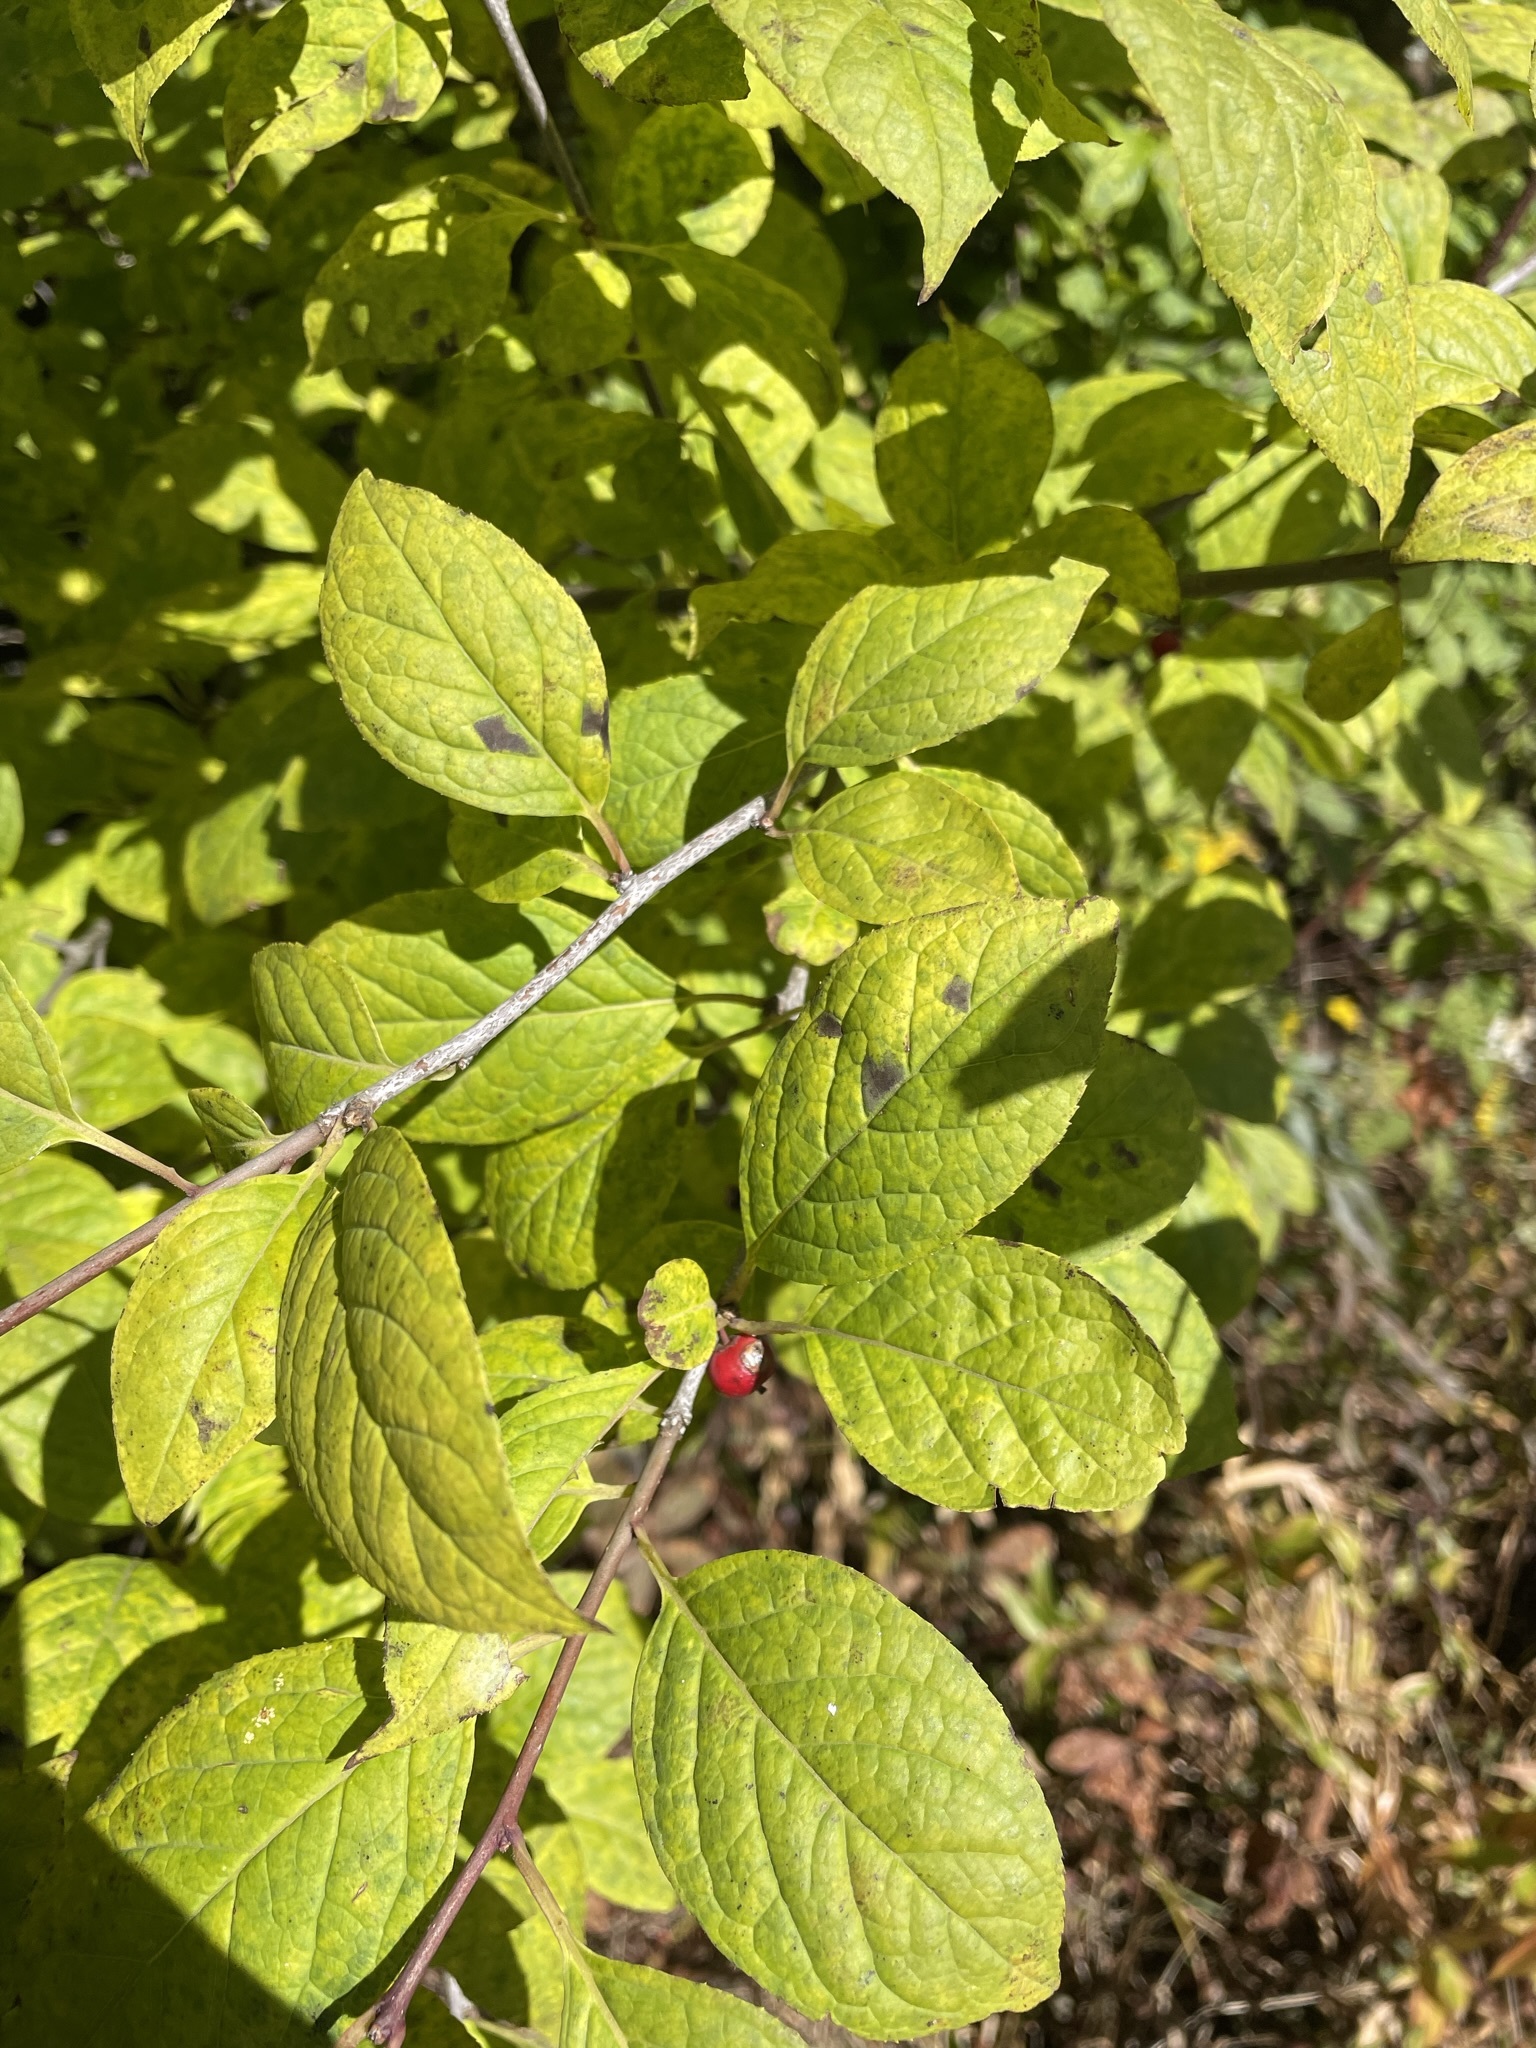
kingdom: Plantae
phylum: Tracheophyta
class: Magnoliopsida
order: Aquifoliales
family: Aquifoliaceae
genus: Ilex
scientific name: Ilex montana
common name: Mountain winterberry
